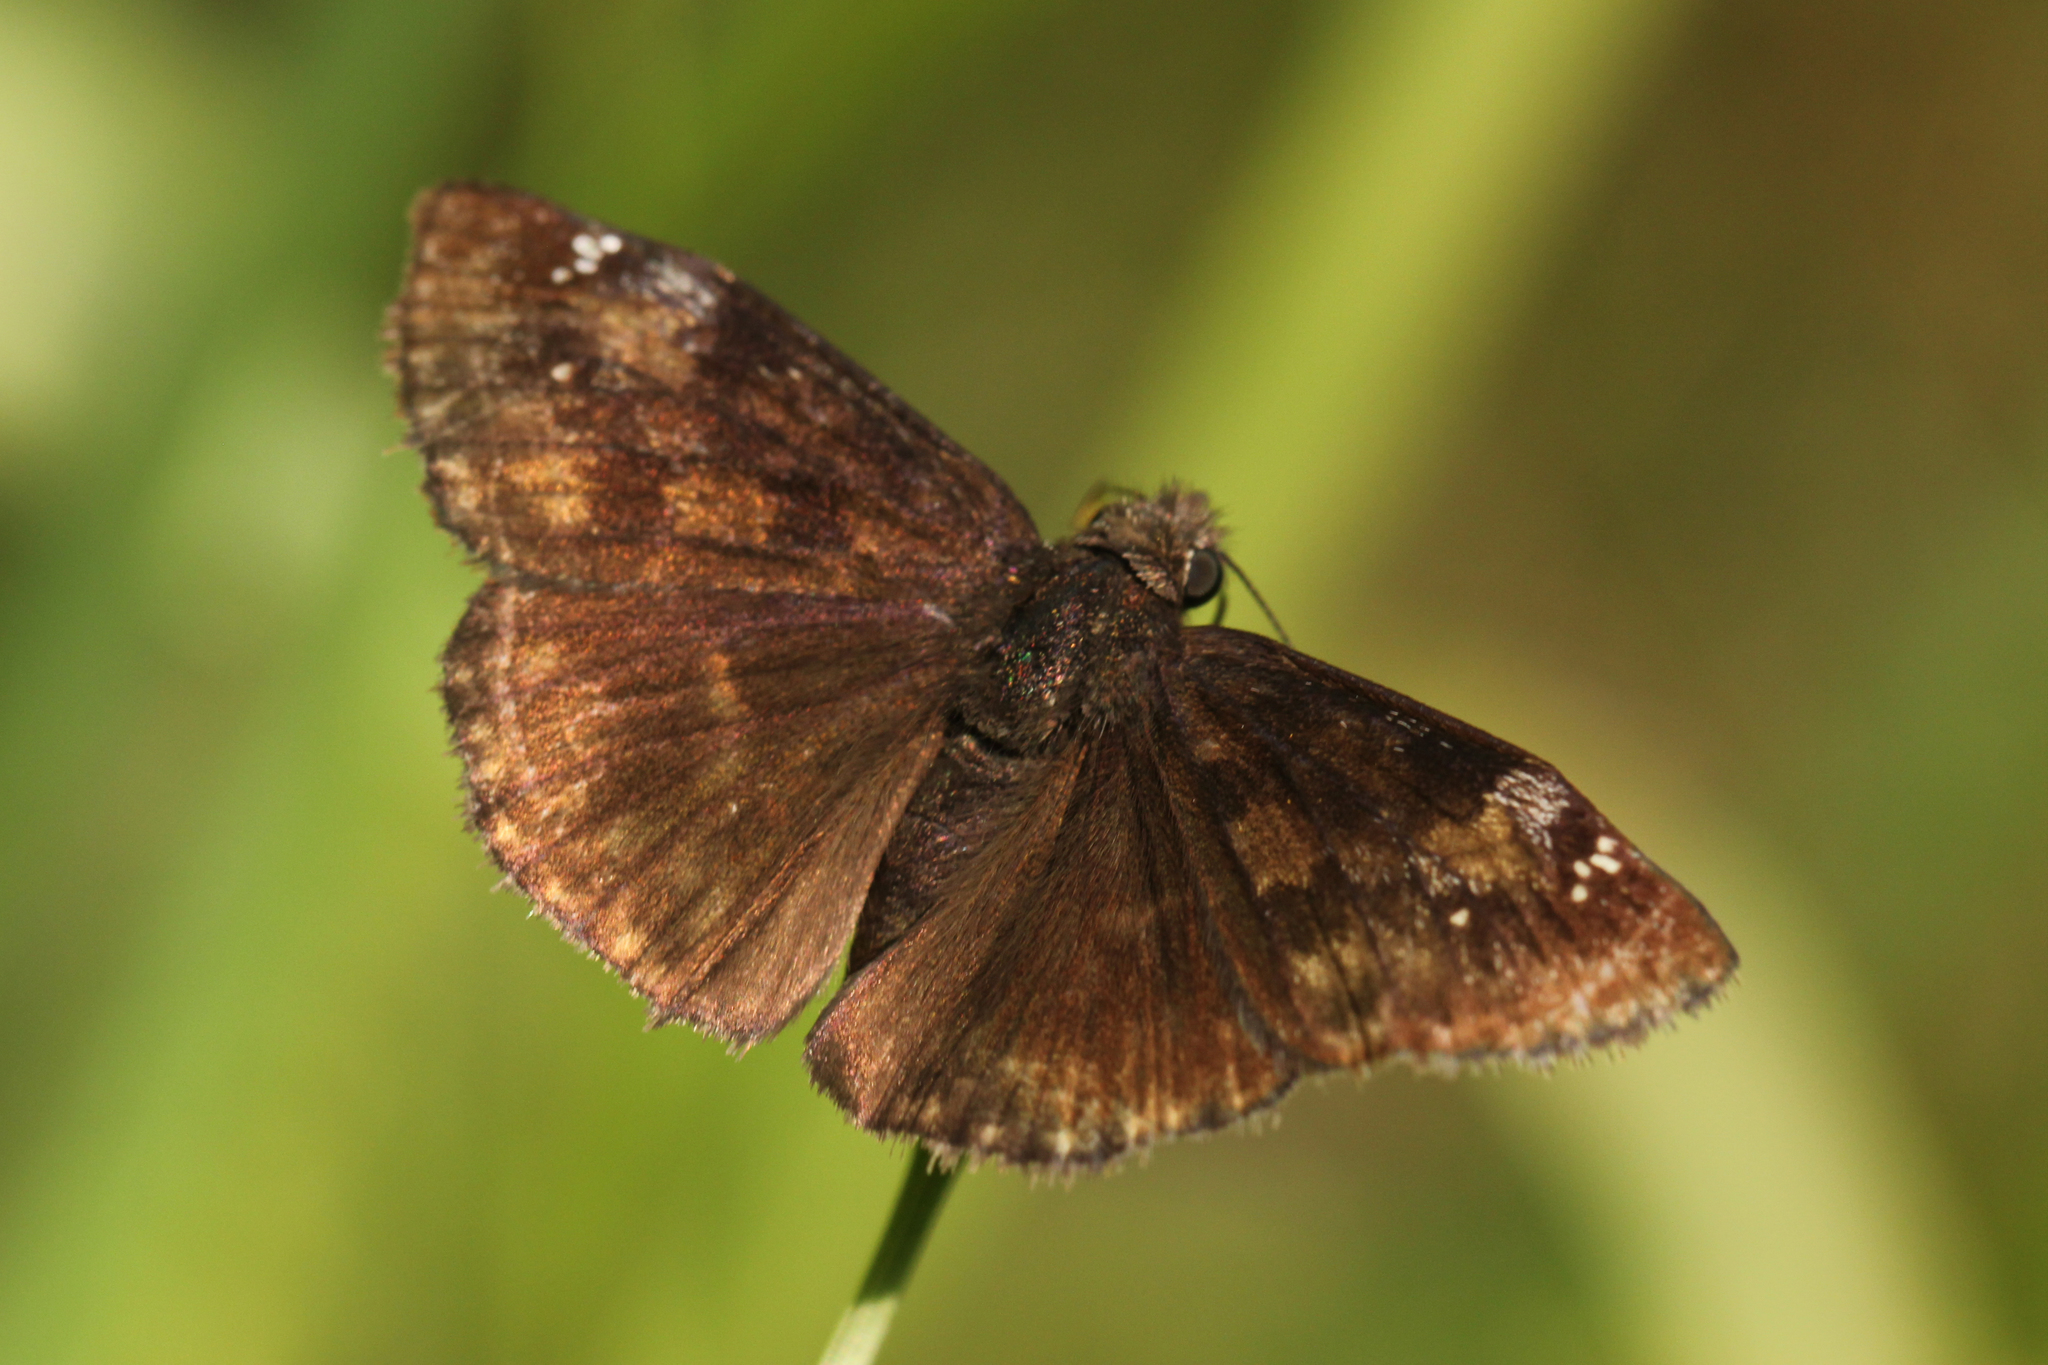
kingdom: Animalia
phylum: Arthropoda
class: Insecta
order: Lepidoptera
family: Hesperiidae
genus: Erynnis
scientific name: Erynnis baptisiae
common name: Wild indigo duskywing
